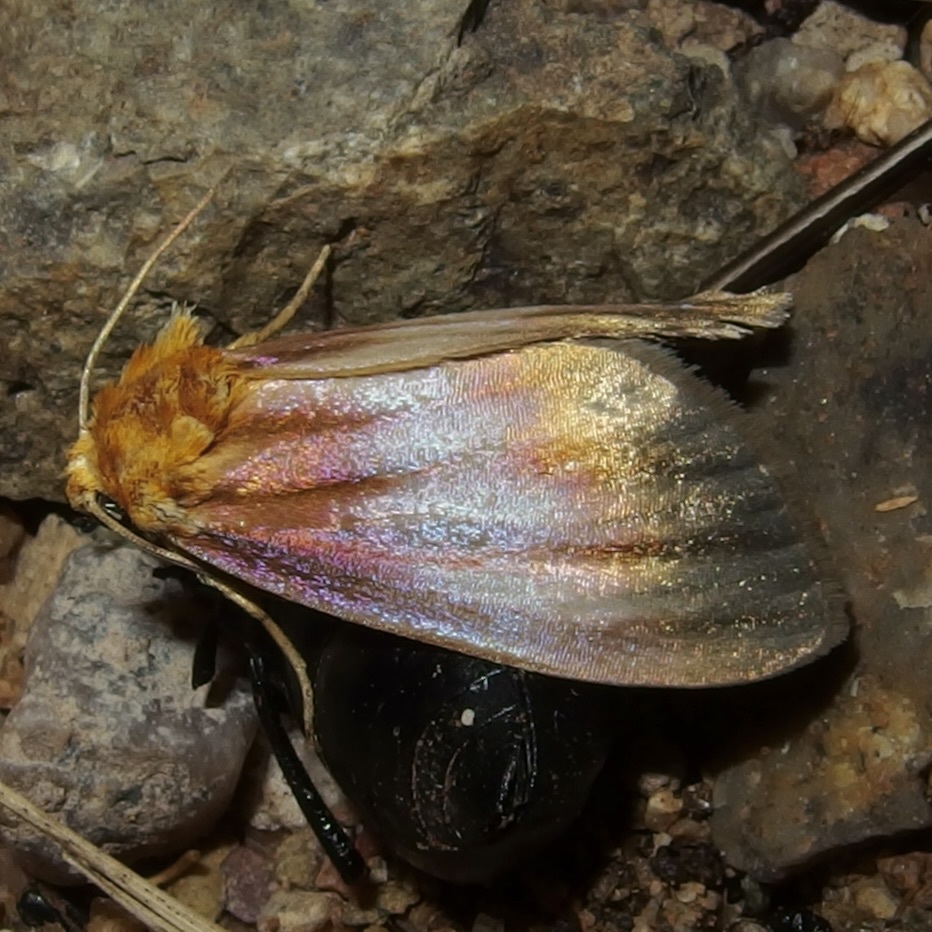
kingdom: Animalia
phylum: Arthropoda
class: Insecta
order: Lepidoptera
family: Noctuidae
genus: Antaplaga
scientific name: Antaplaga plesioglauca
